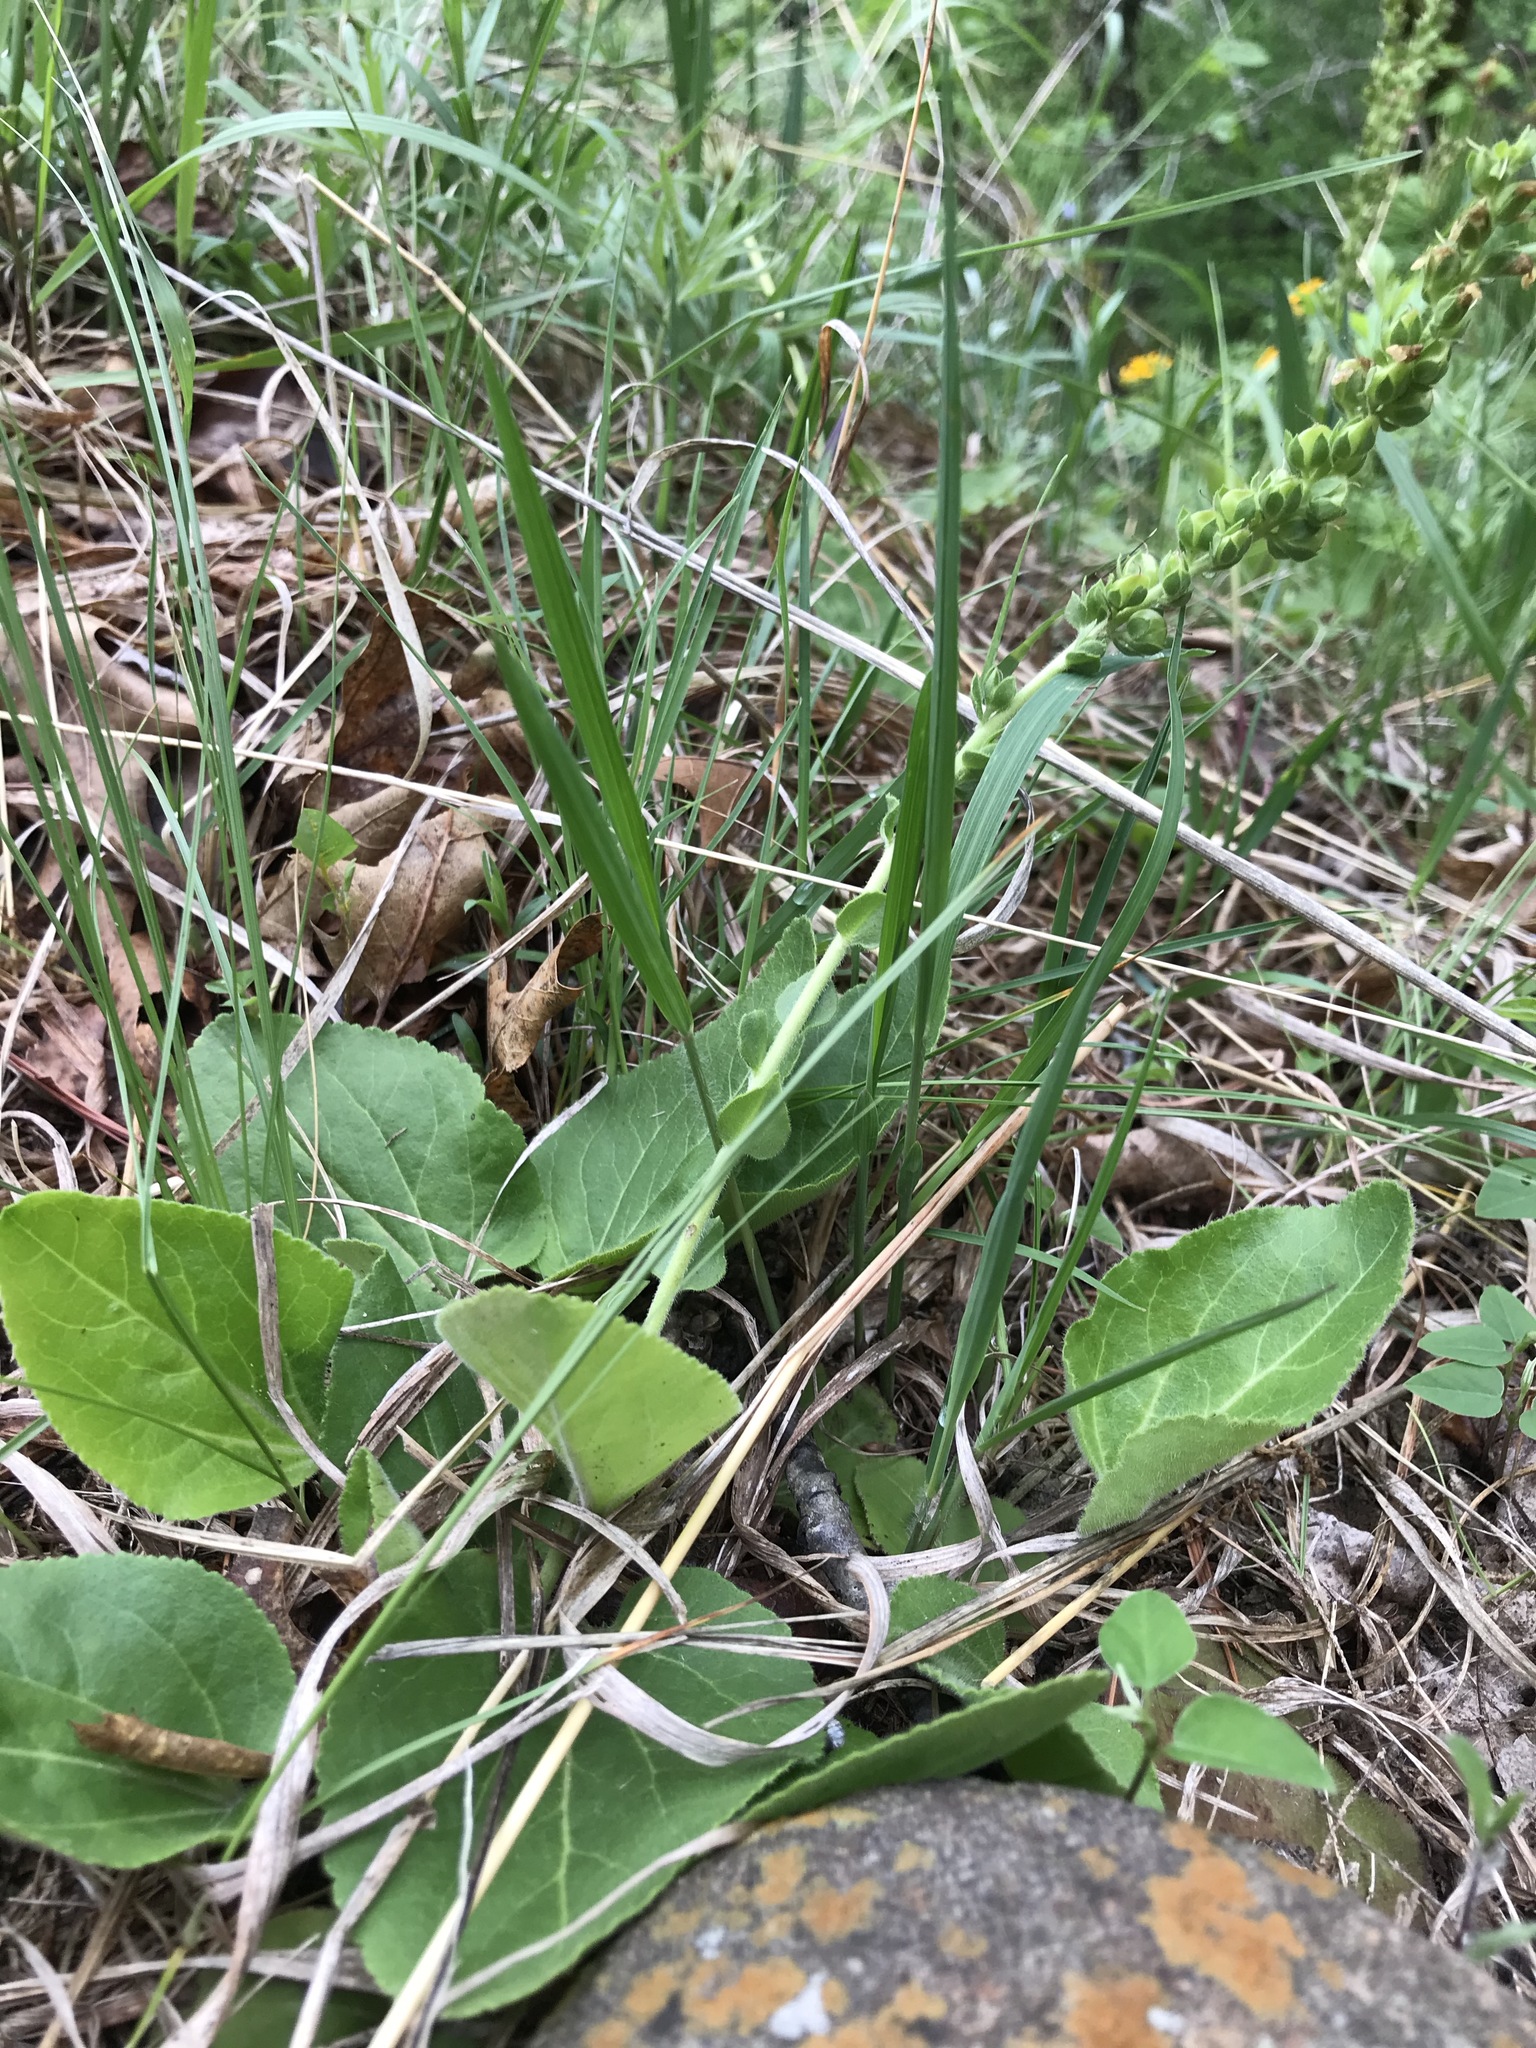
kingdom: Plantae
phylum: Tracheophyta
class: Magnoliopsida
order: Lamiales
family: Plantaginaceae
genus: Synthyris
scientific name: Synthyris bullii
